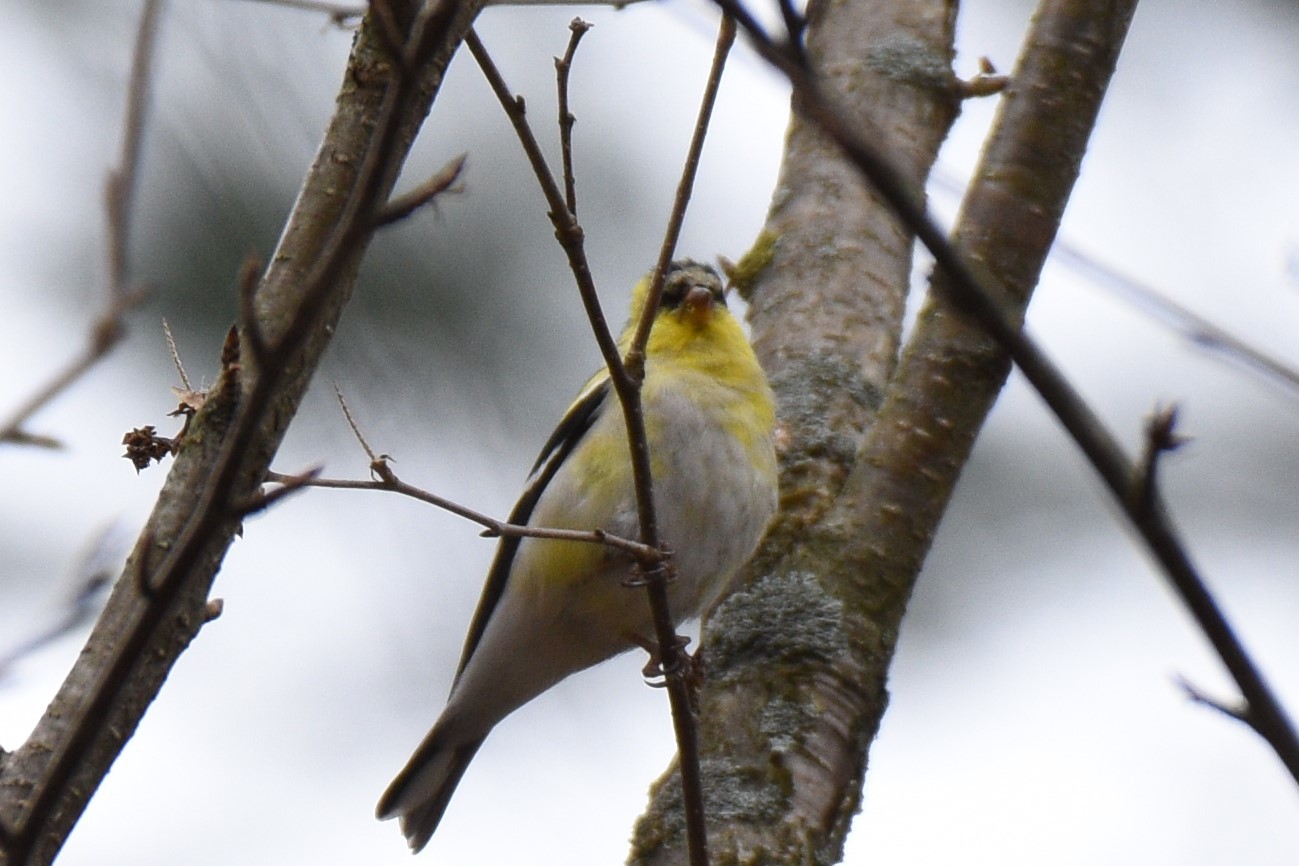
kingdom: Animalia
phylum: Chordata
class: Aves
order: Passeriformes
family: Fringillidae
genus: Spinus
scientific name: Spinus tristis
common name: American goldfinch
